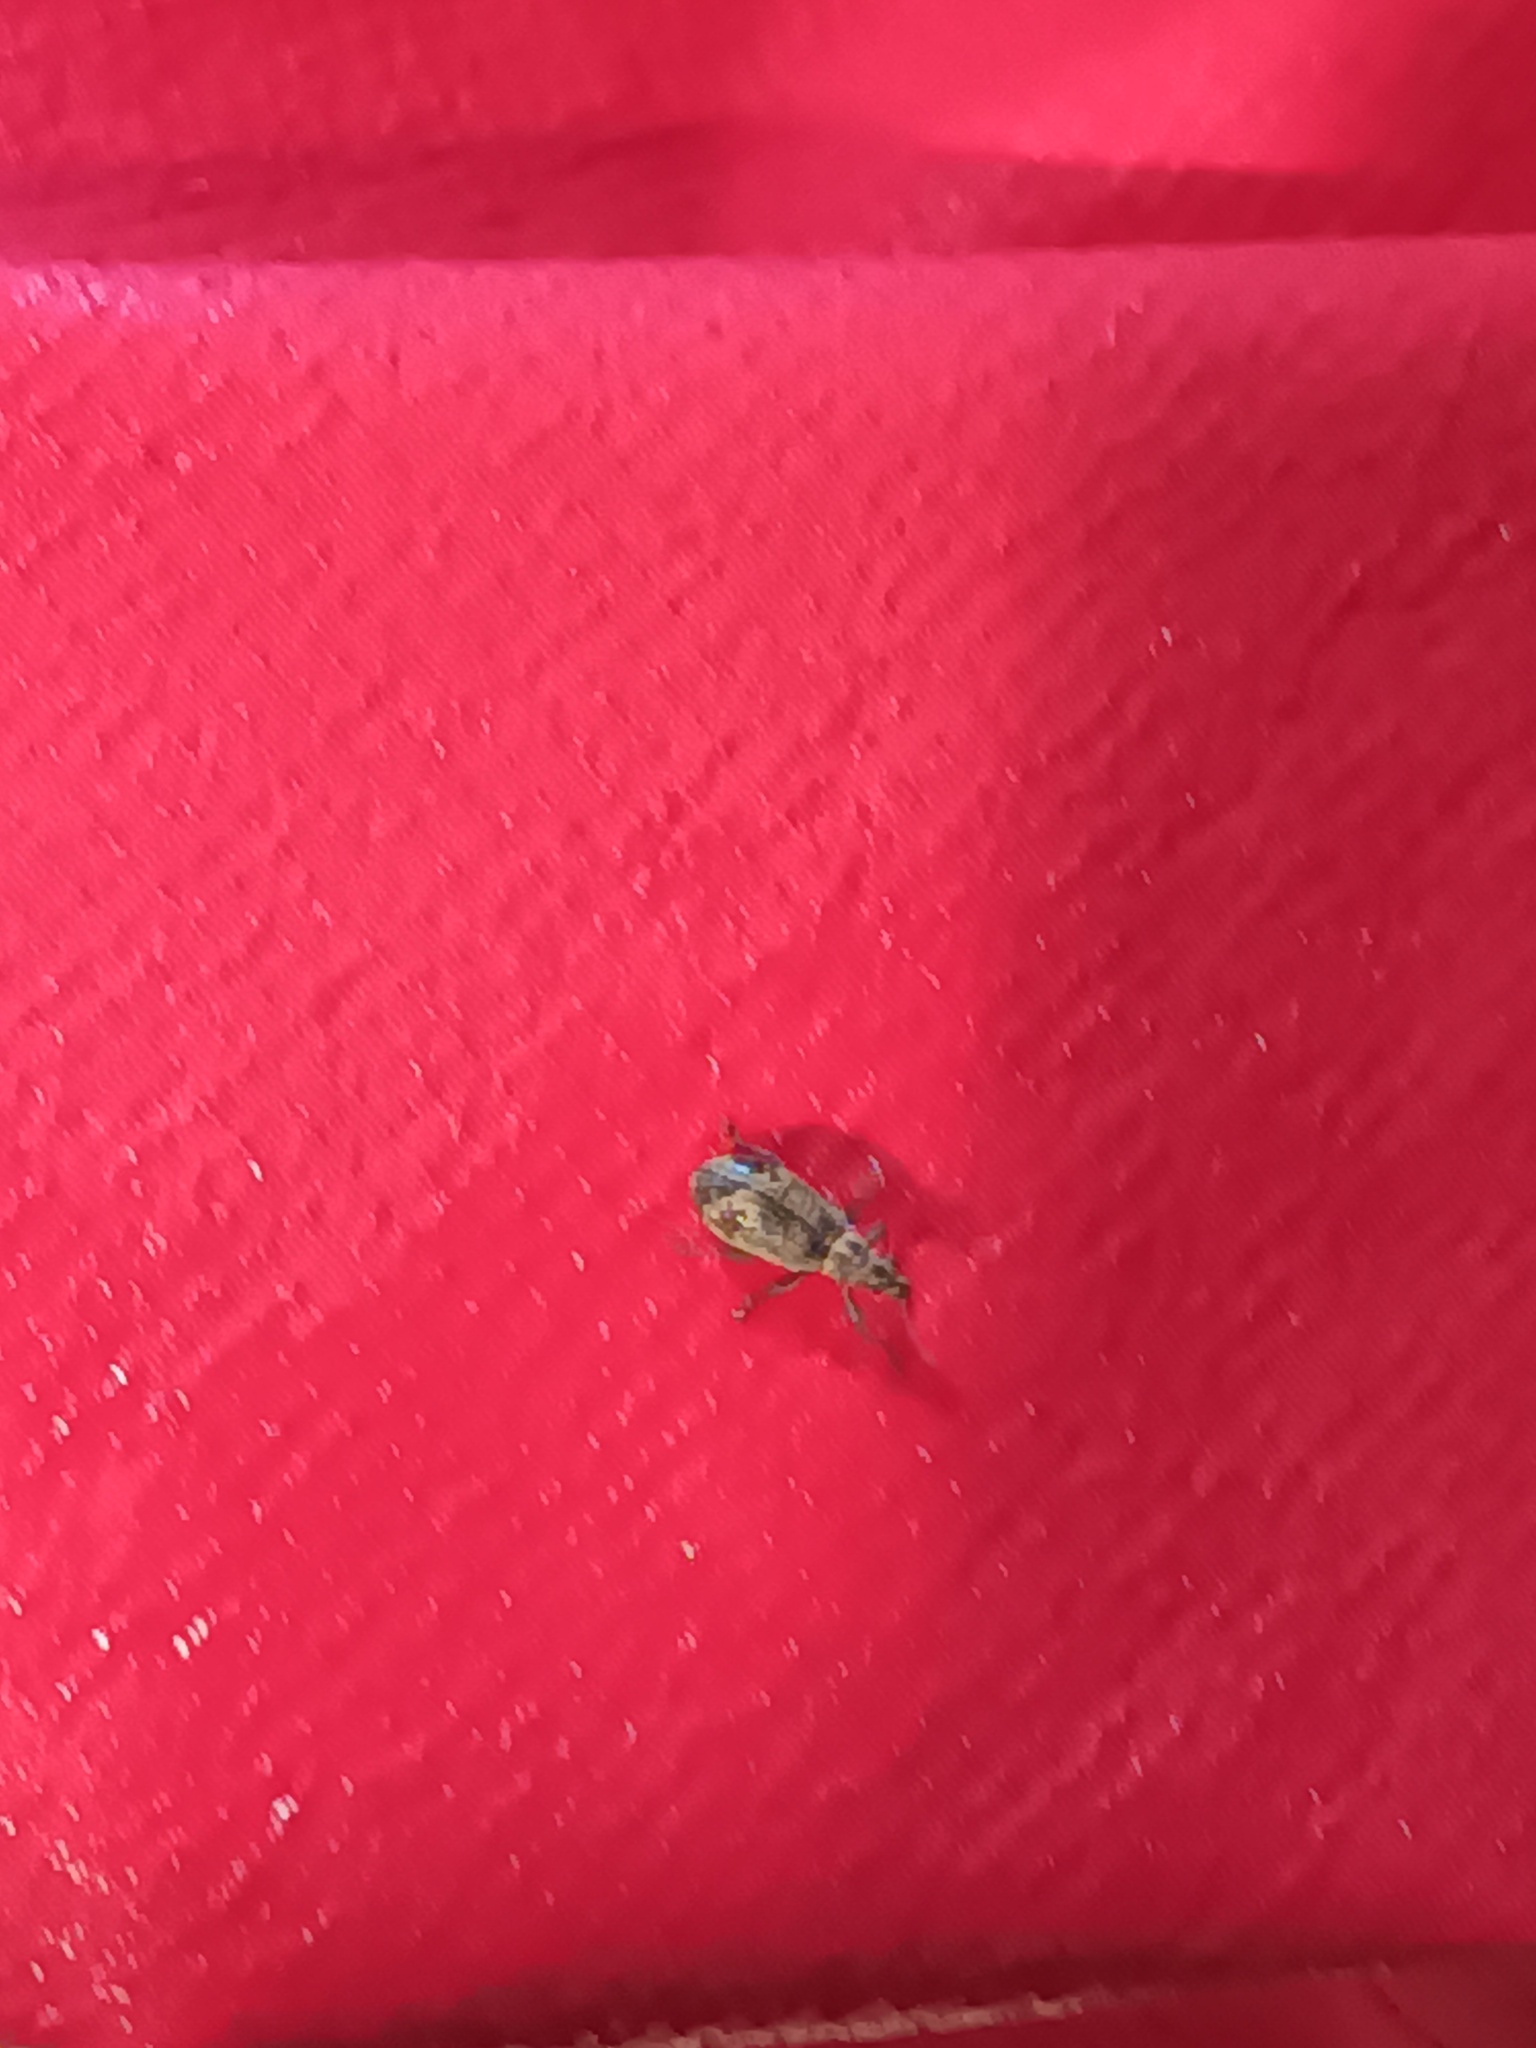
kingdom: Animalia
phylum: Arthropoda
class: Insecta
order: Coleoptera
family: Curculionidae
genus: Polydrusus
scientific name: Polydrusus cervinus
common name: Weevil
